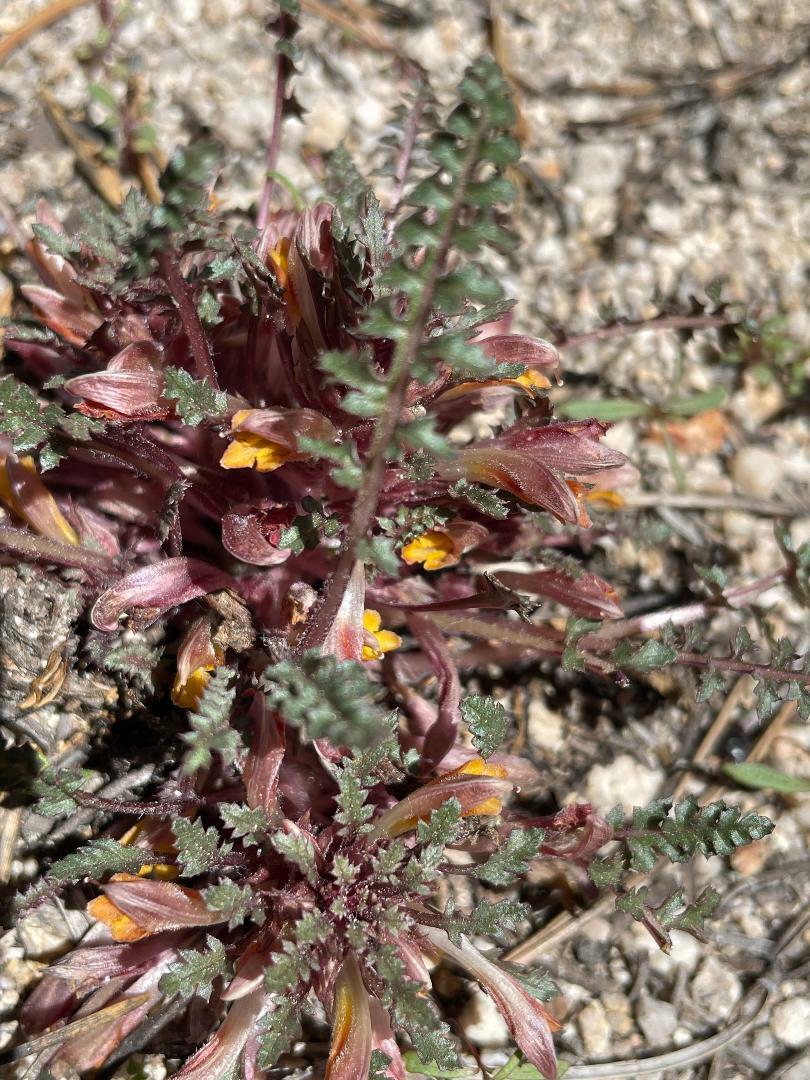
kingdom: Plantae
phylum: Tracheophyta
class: Magnoliopsida
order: Lamiales
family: Orobanchaceae
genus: Pedicularis
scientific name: Pedicularis semibarbata
